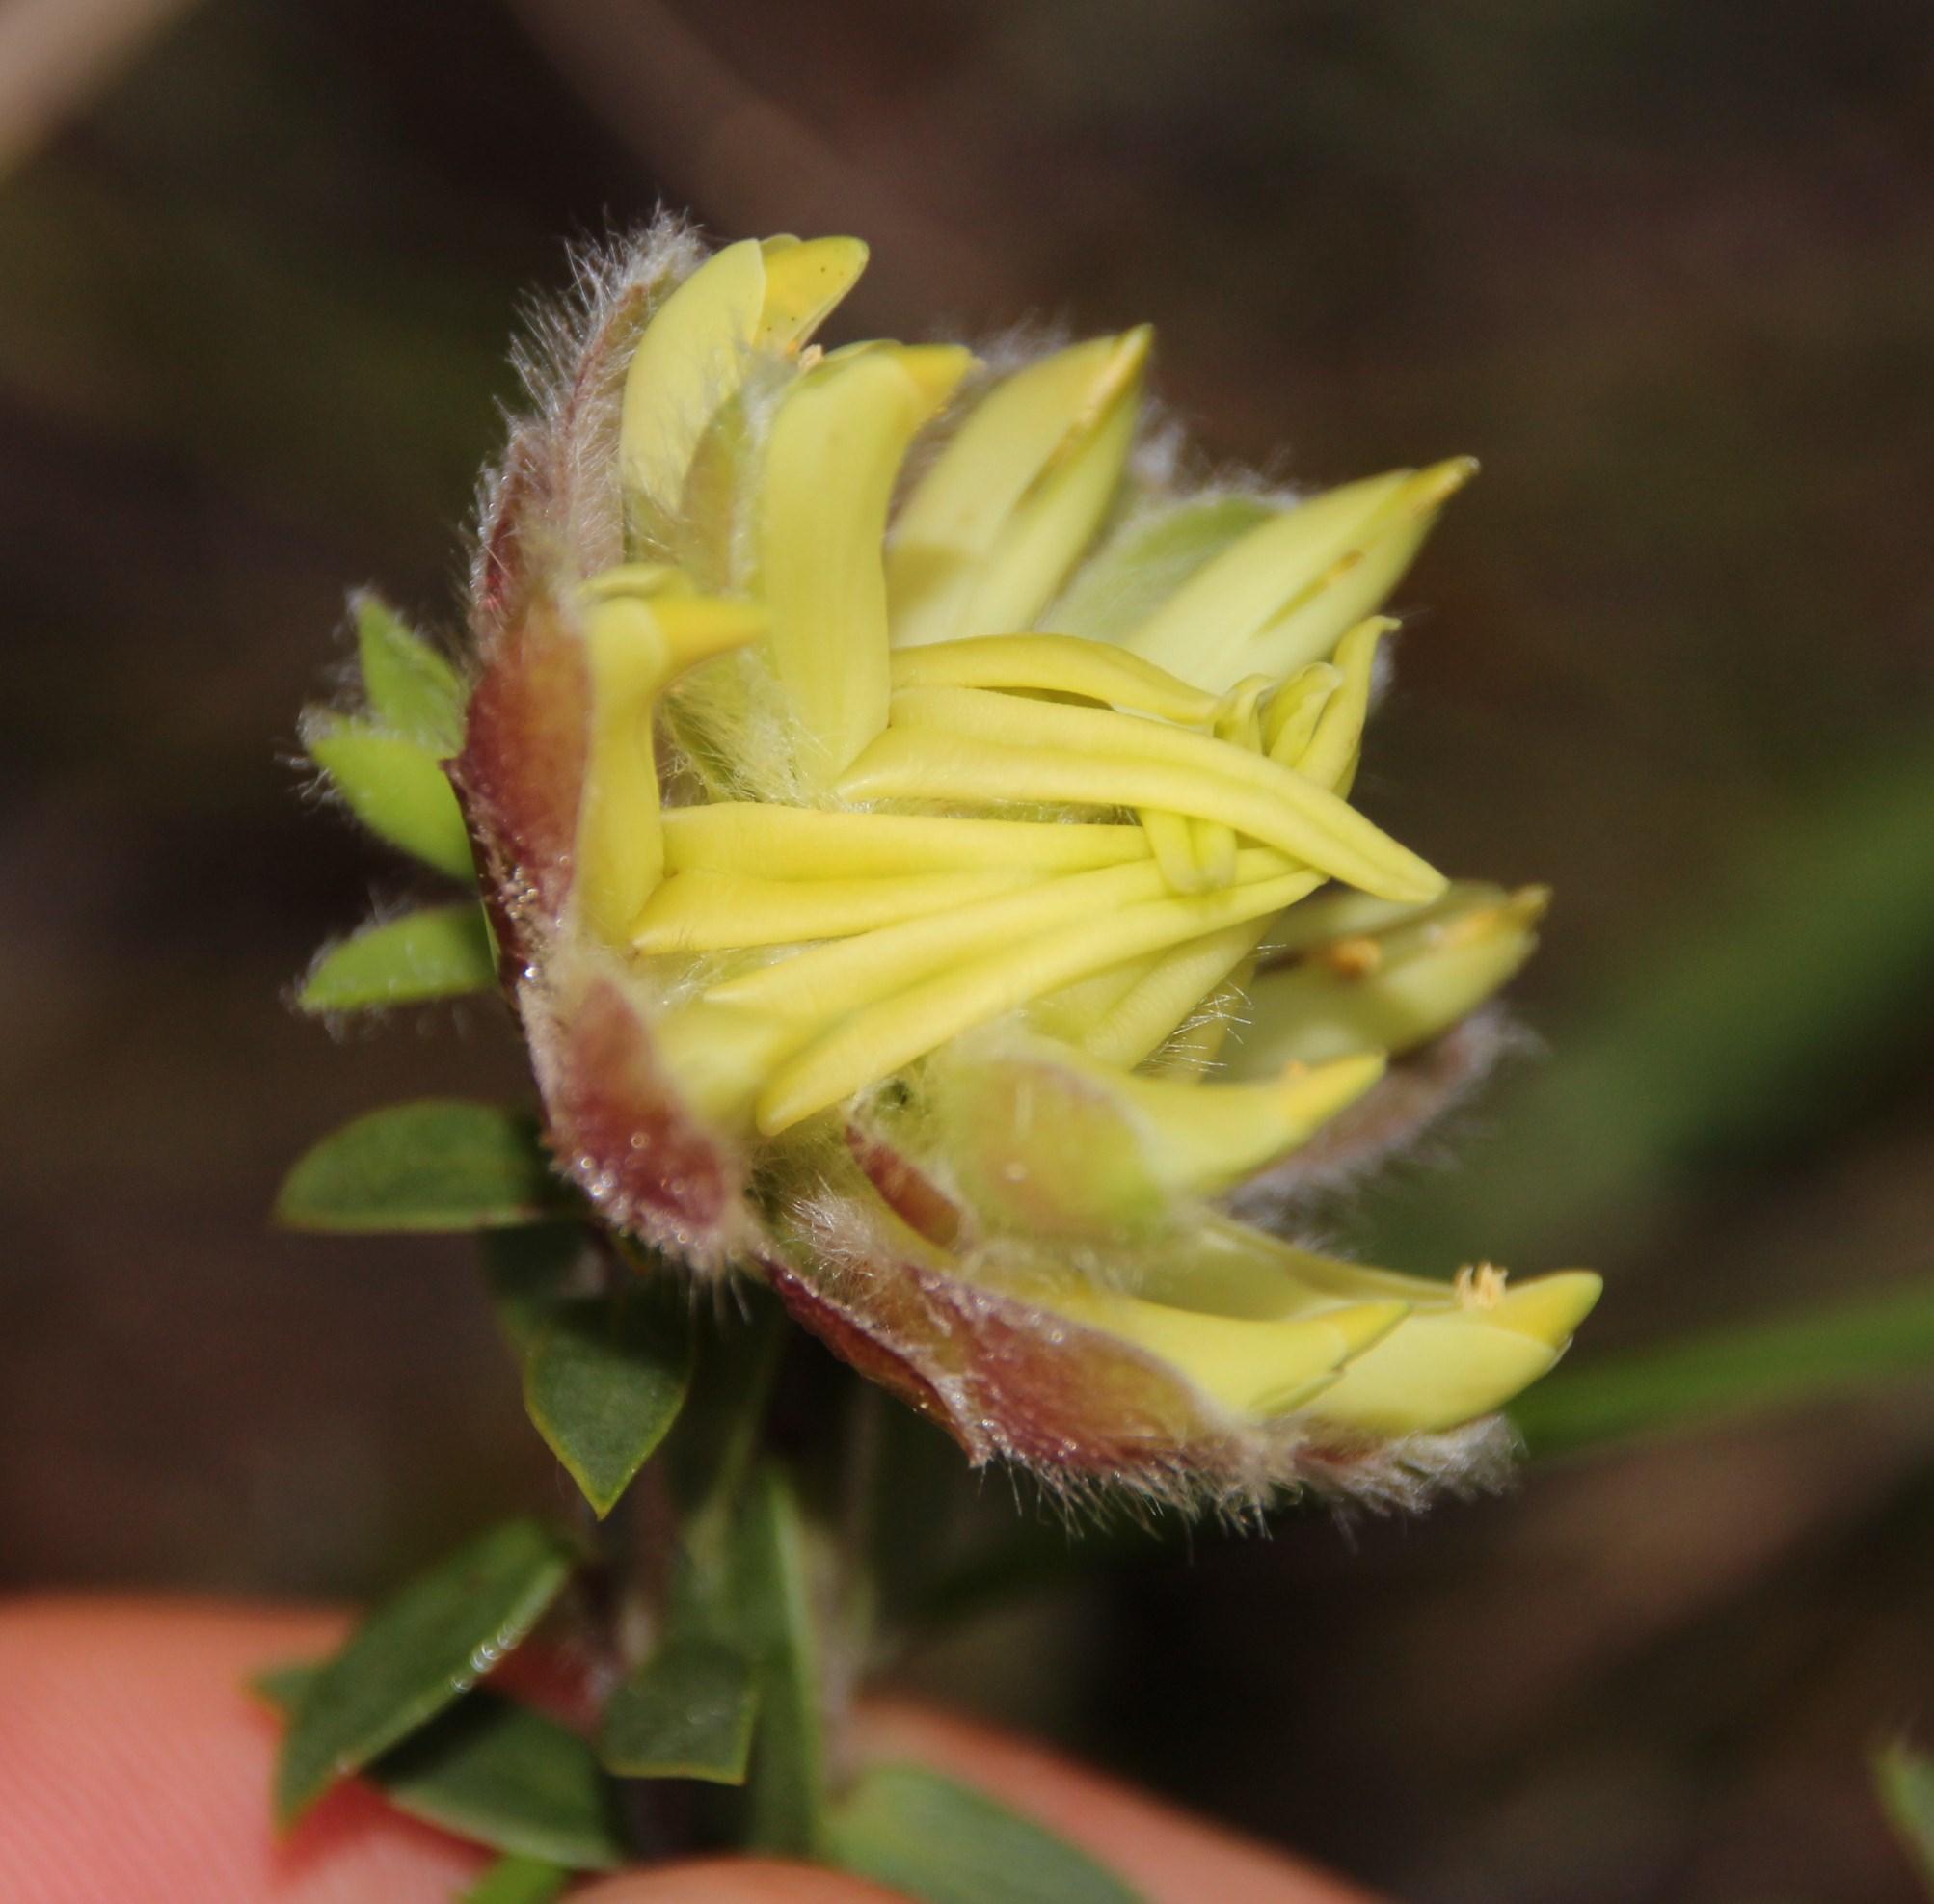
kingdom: Plantae
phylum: Tracheophyta
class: Magnoliopsida
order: Fabales
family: Fabaceae
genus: Liparia
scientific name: Liparia parva
